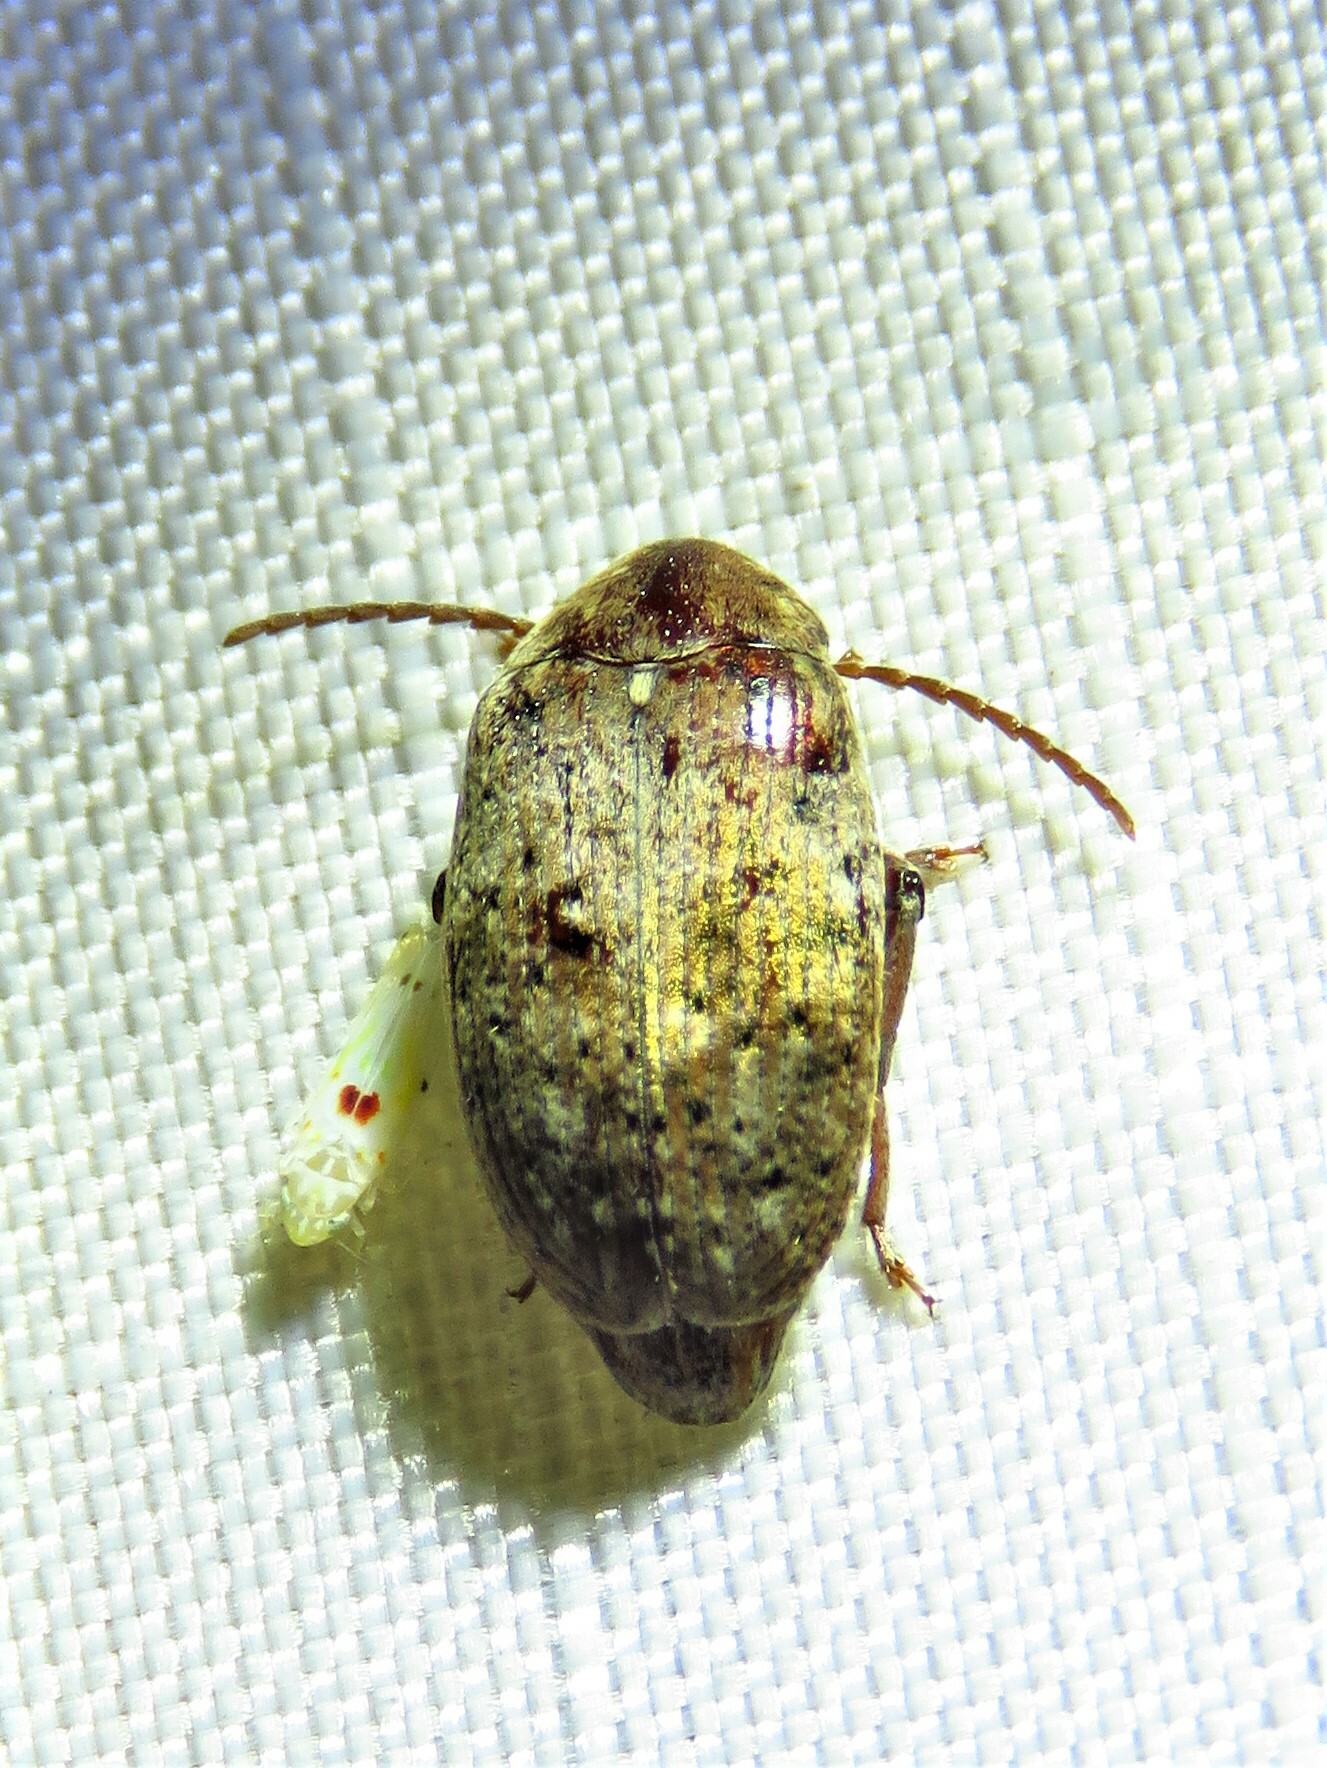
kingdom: Animalia
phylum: Arthropoda
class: Insecta
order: Coleoptera
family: Chrysomelidae
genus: Amblycerus
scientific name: Amblycerus robiniae
